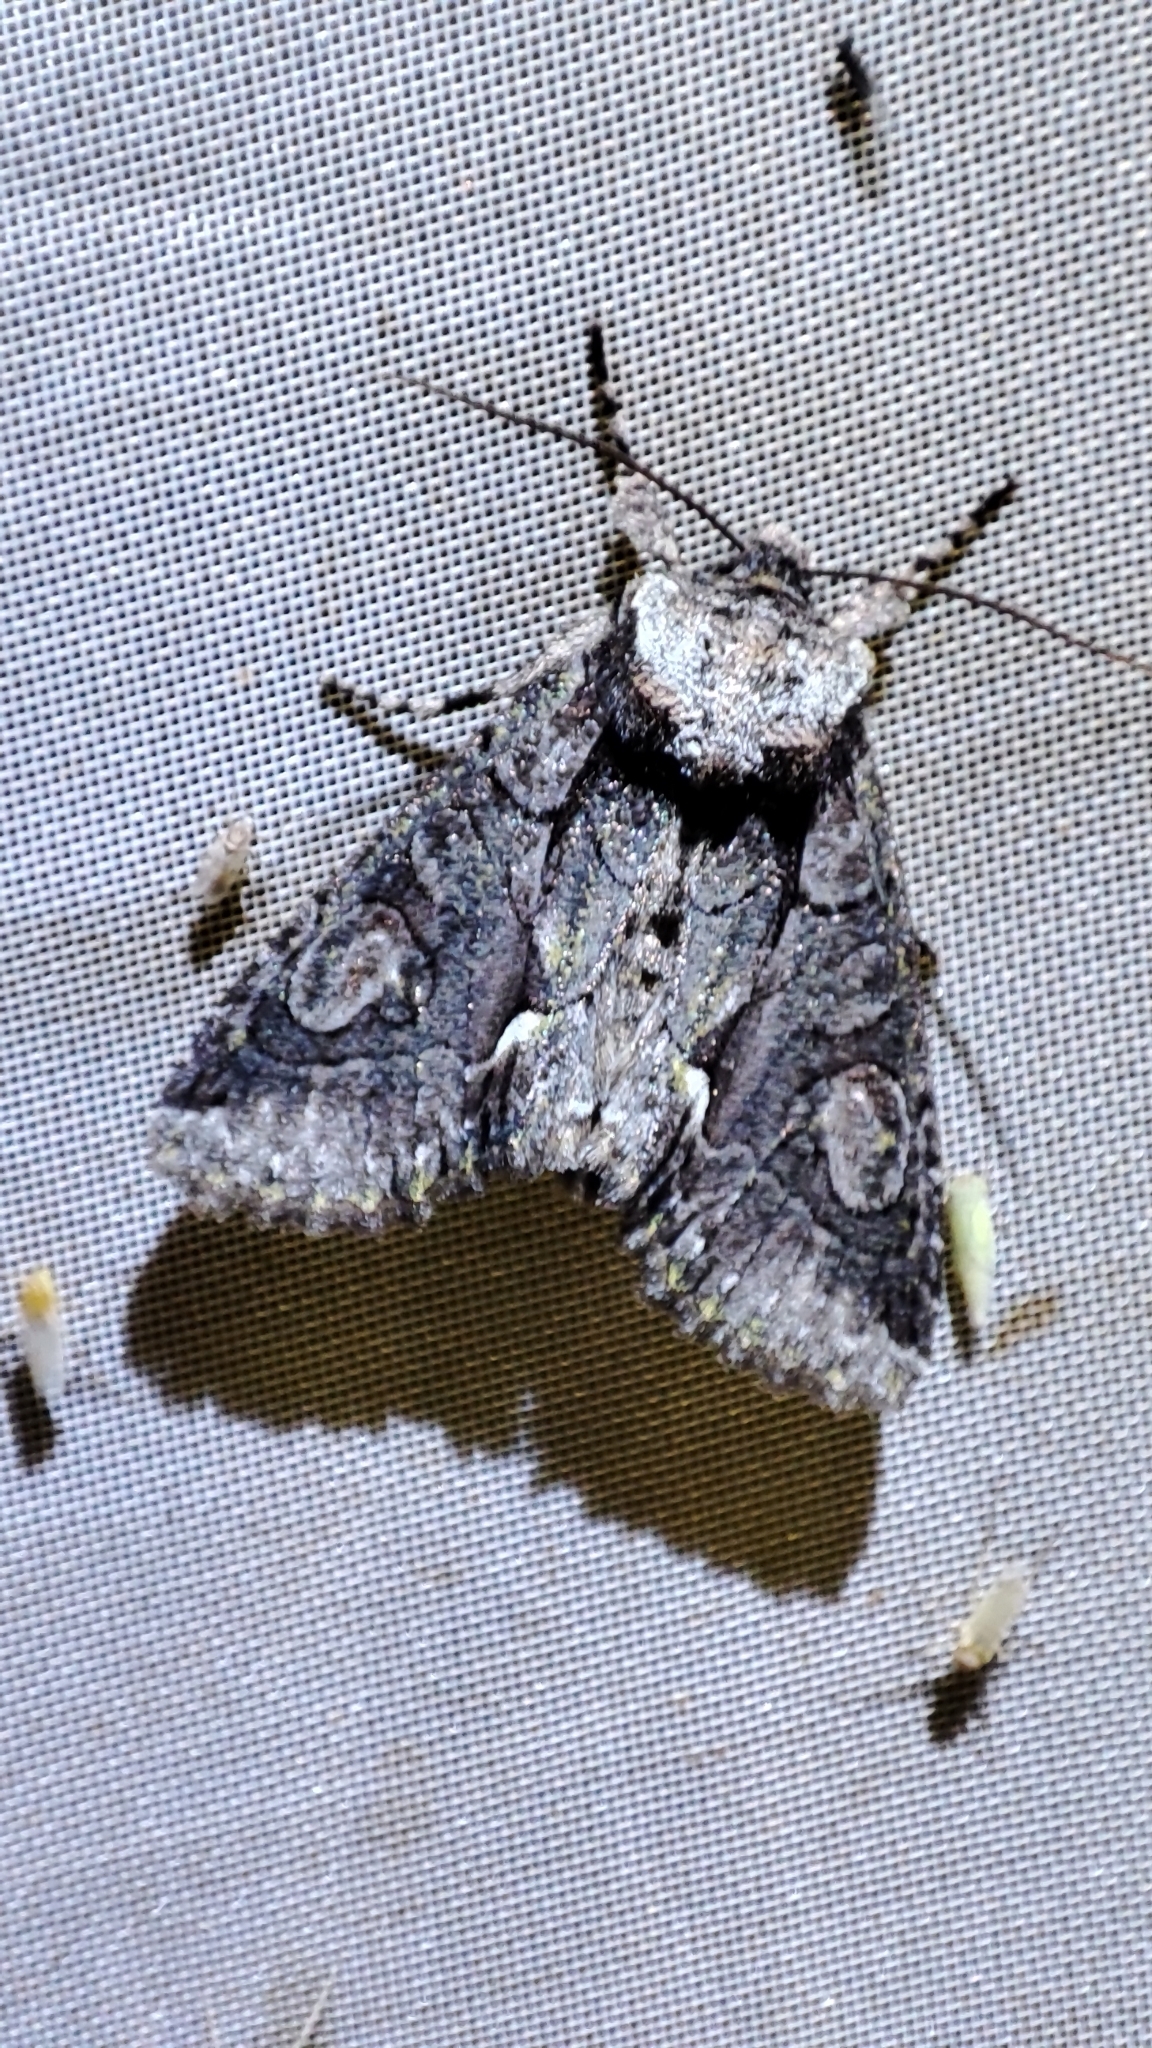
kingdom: Animalia
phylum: Arthropoda
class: Insecta
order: Lepidoptera
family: Noctuidae
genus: Allophyes
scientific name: Allophyes oxyacanthae
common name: Green-brindled crescent
